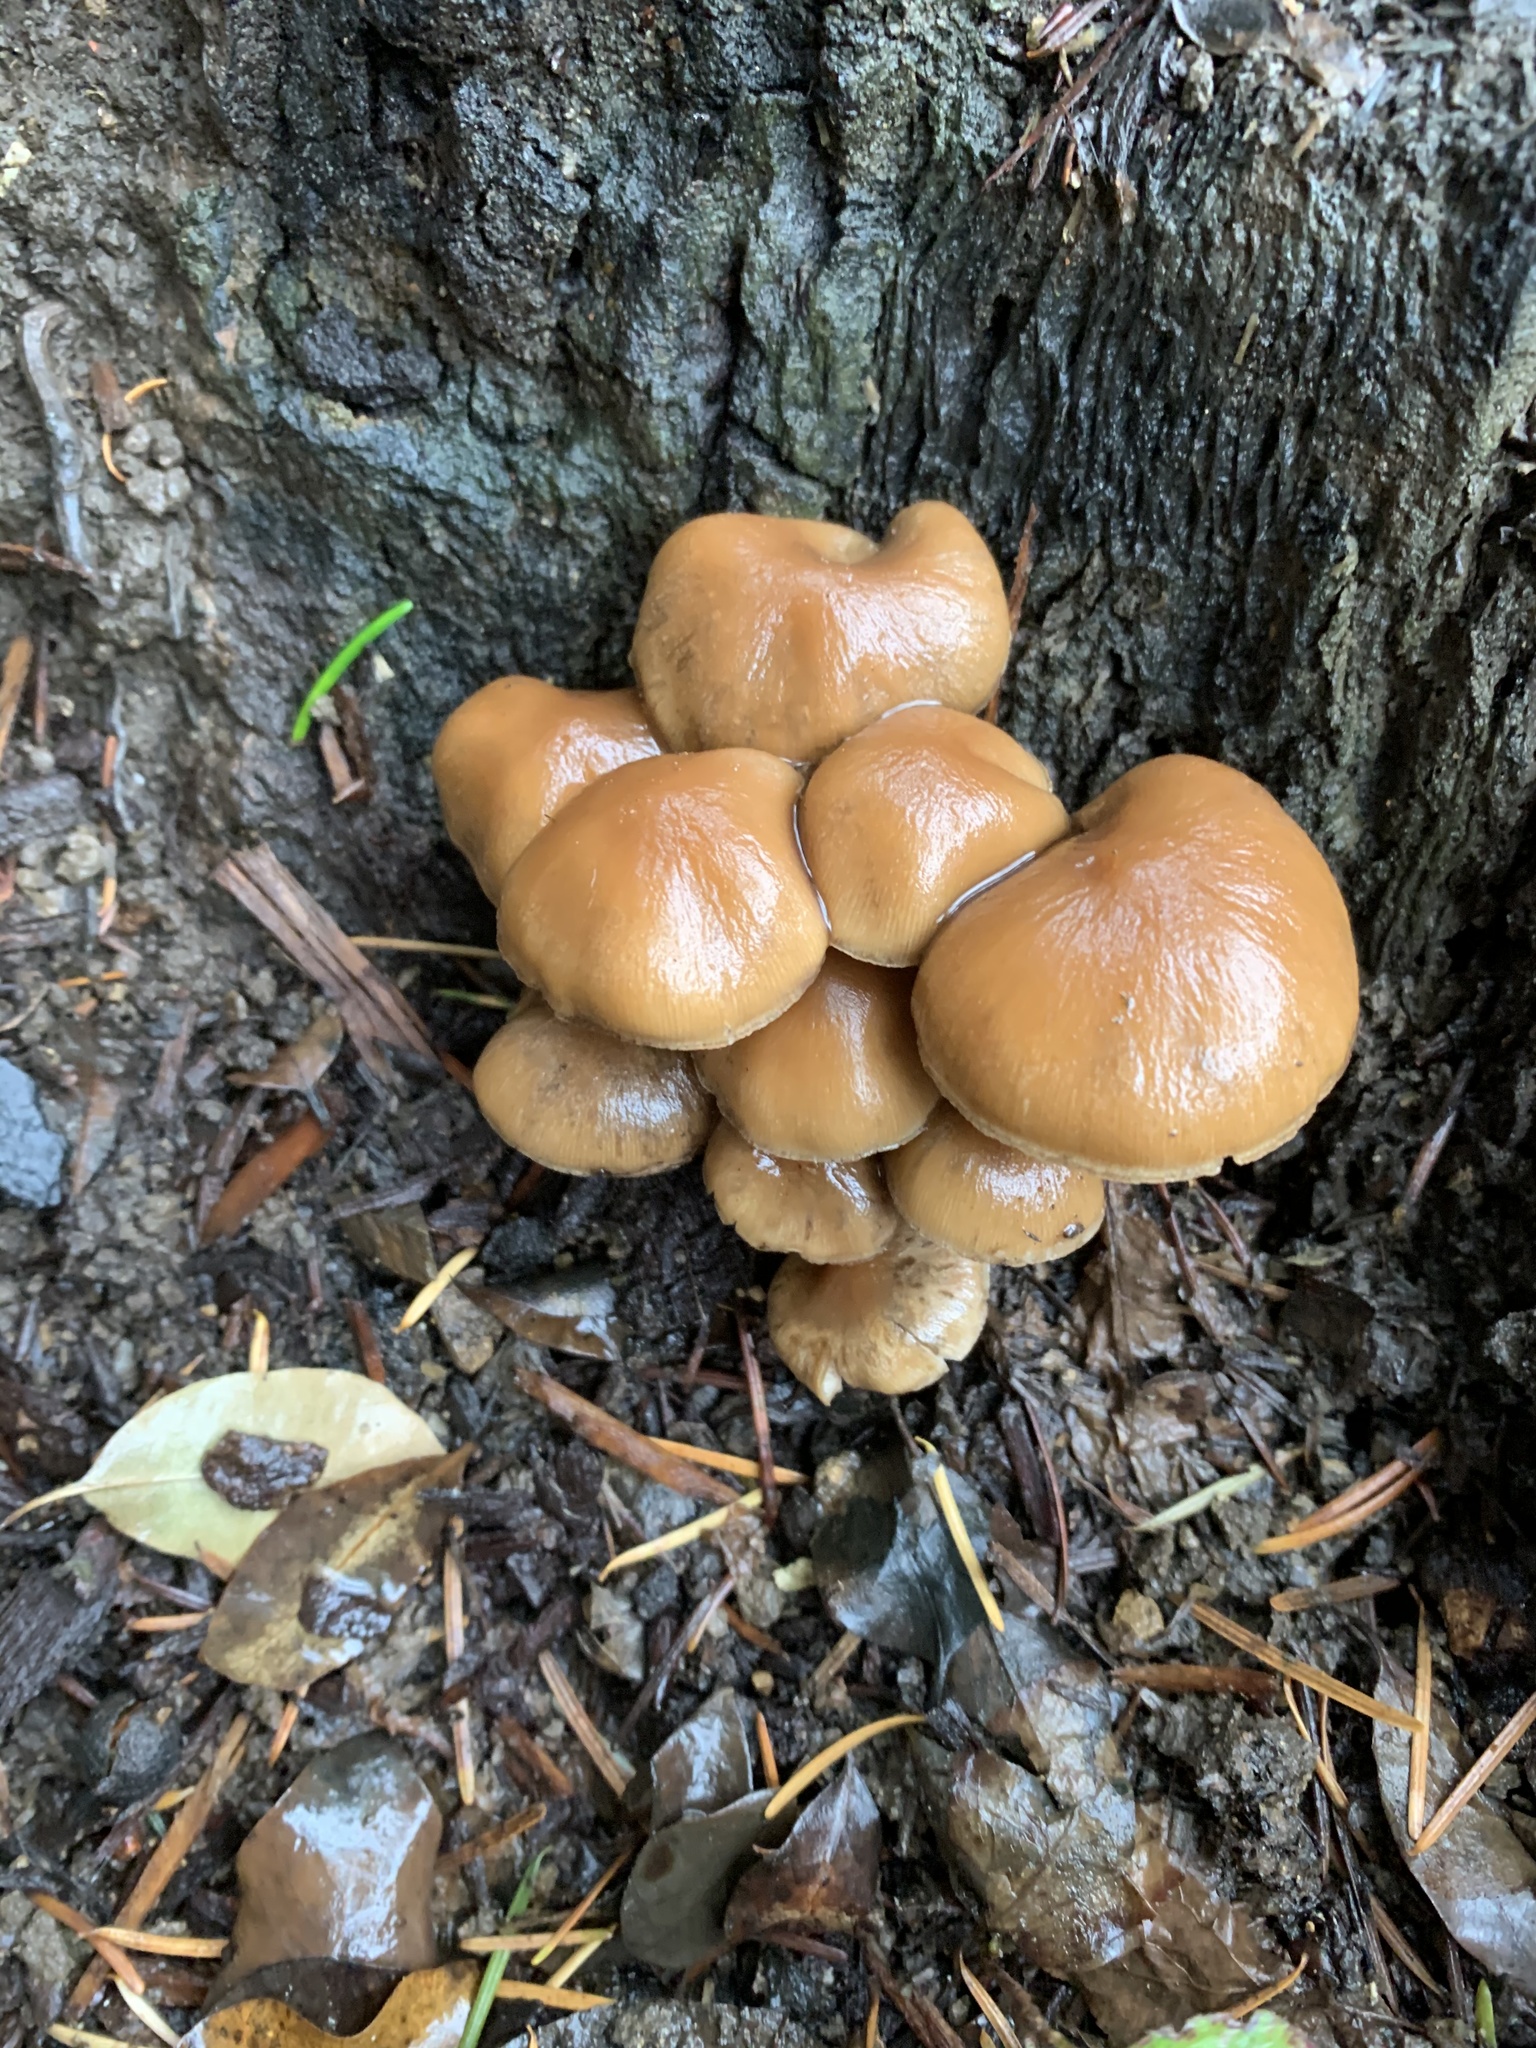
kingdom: Fungi
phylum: Basidiomycota
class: Agaricomycetes
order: Agaricales
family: Psathyrellaceae
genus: Psathyrella
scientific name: Psathyrella piluliformis
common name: Common stump brittlestem
